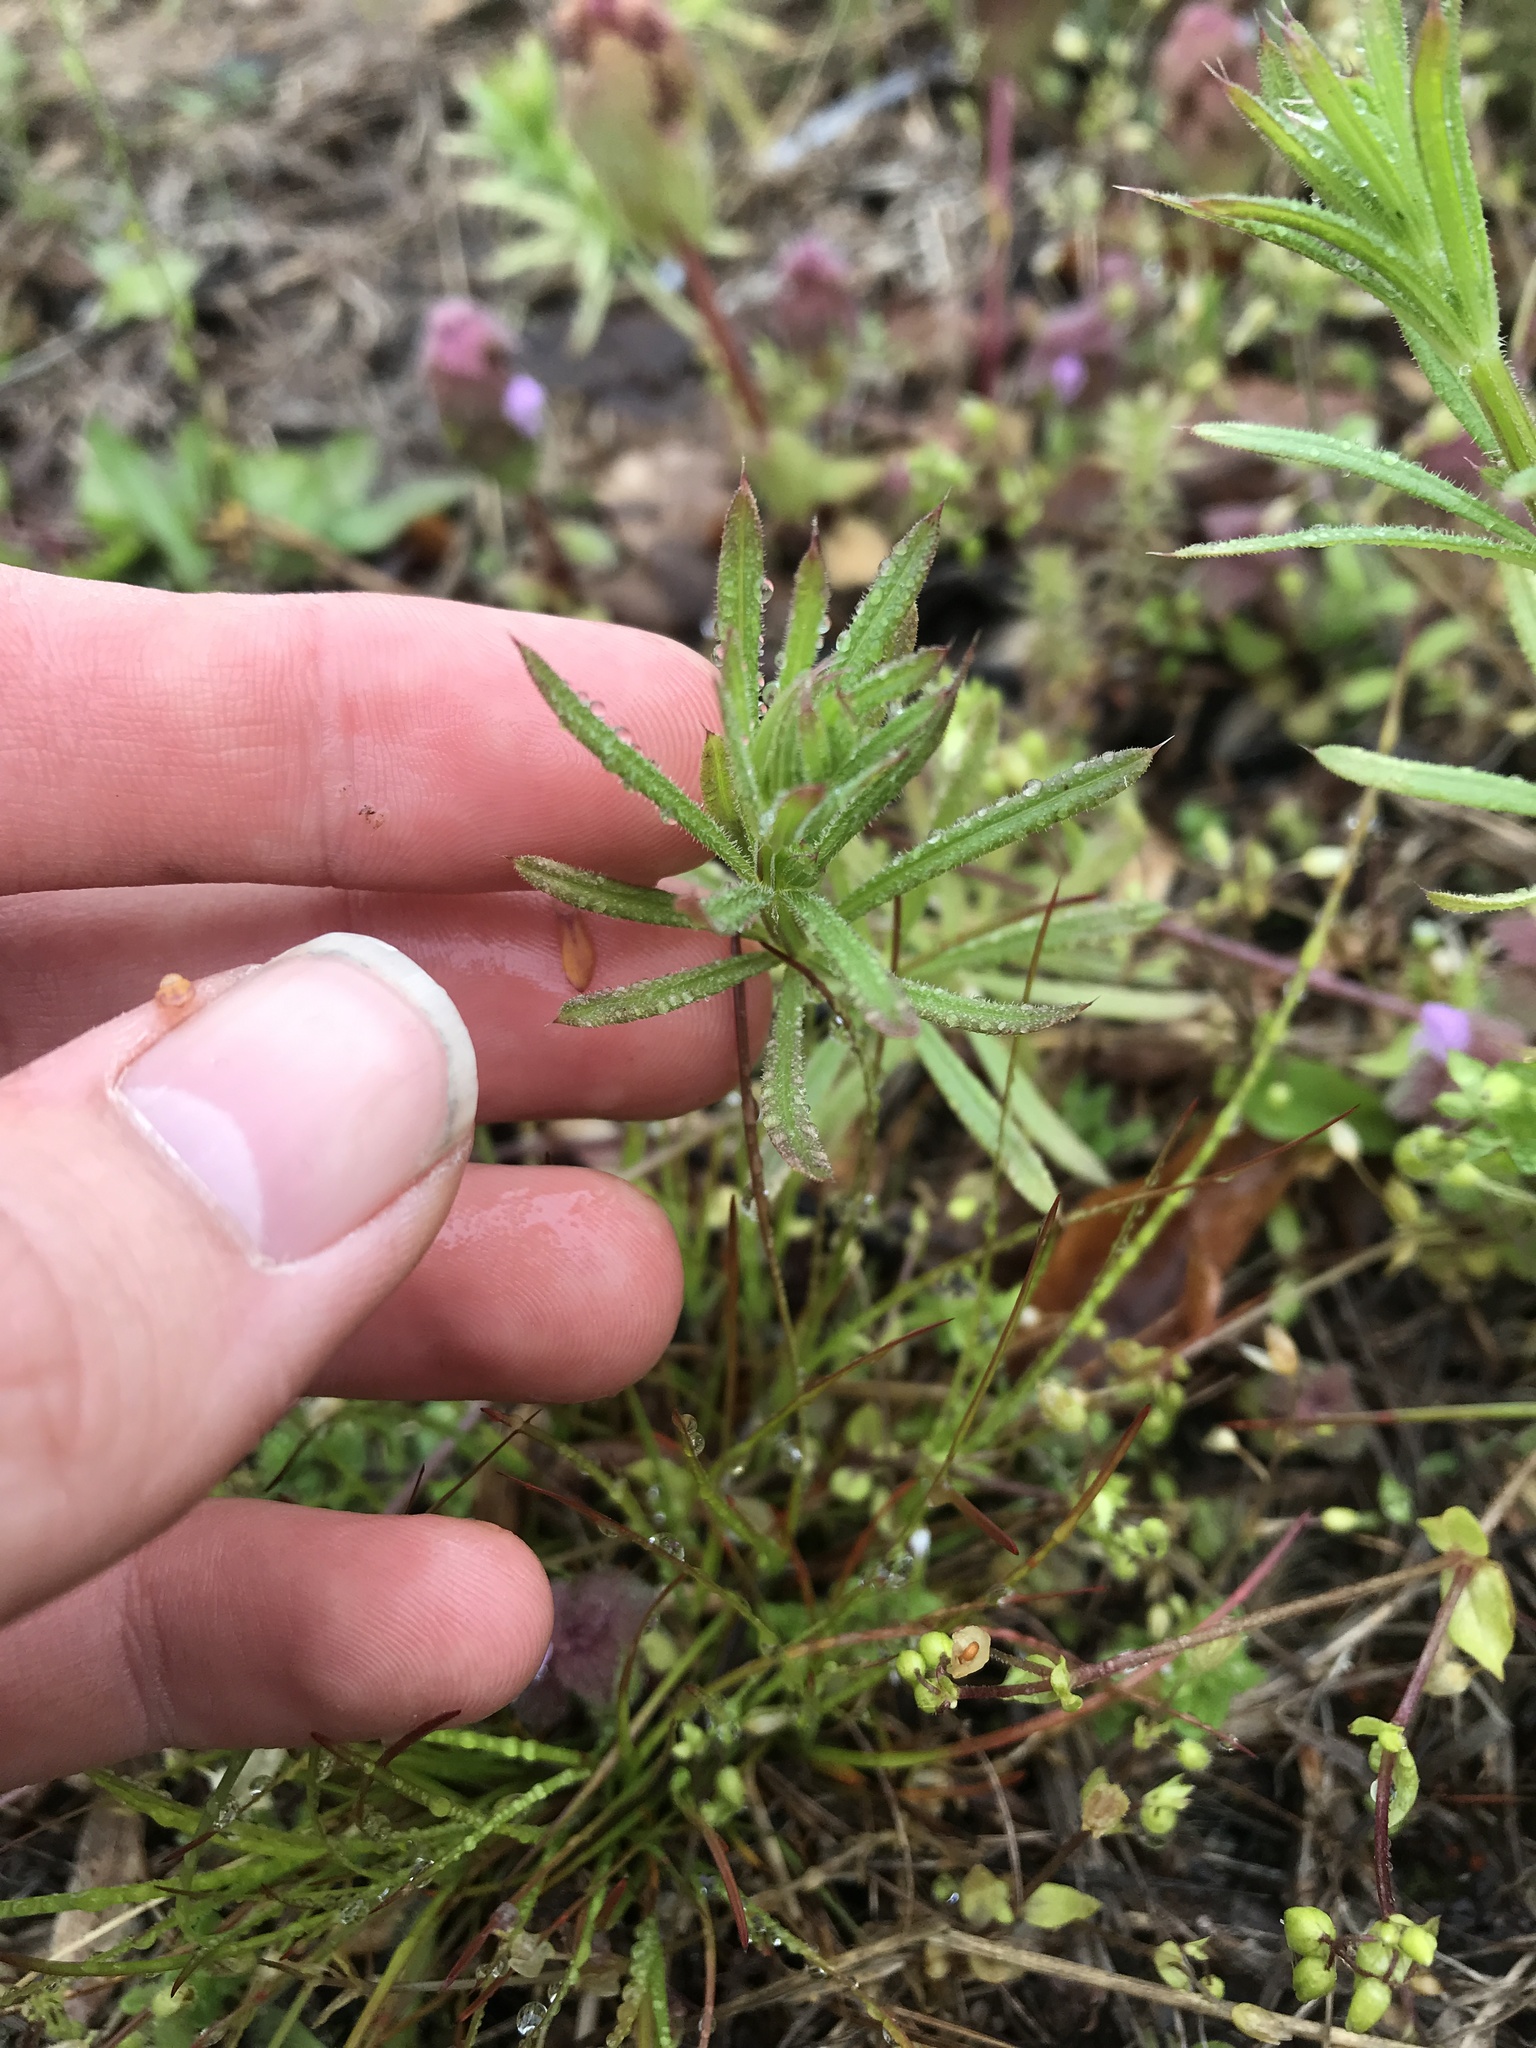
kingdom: Plantae
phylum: Tracheophyta
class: Magnoliopsida
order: Gentianales
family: Rubiaceae
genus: Galium
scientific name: Galium aparine
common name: Cleavers
